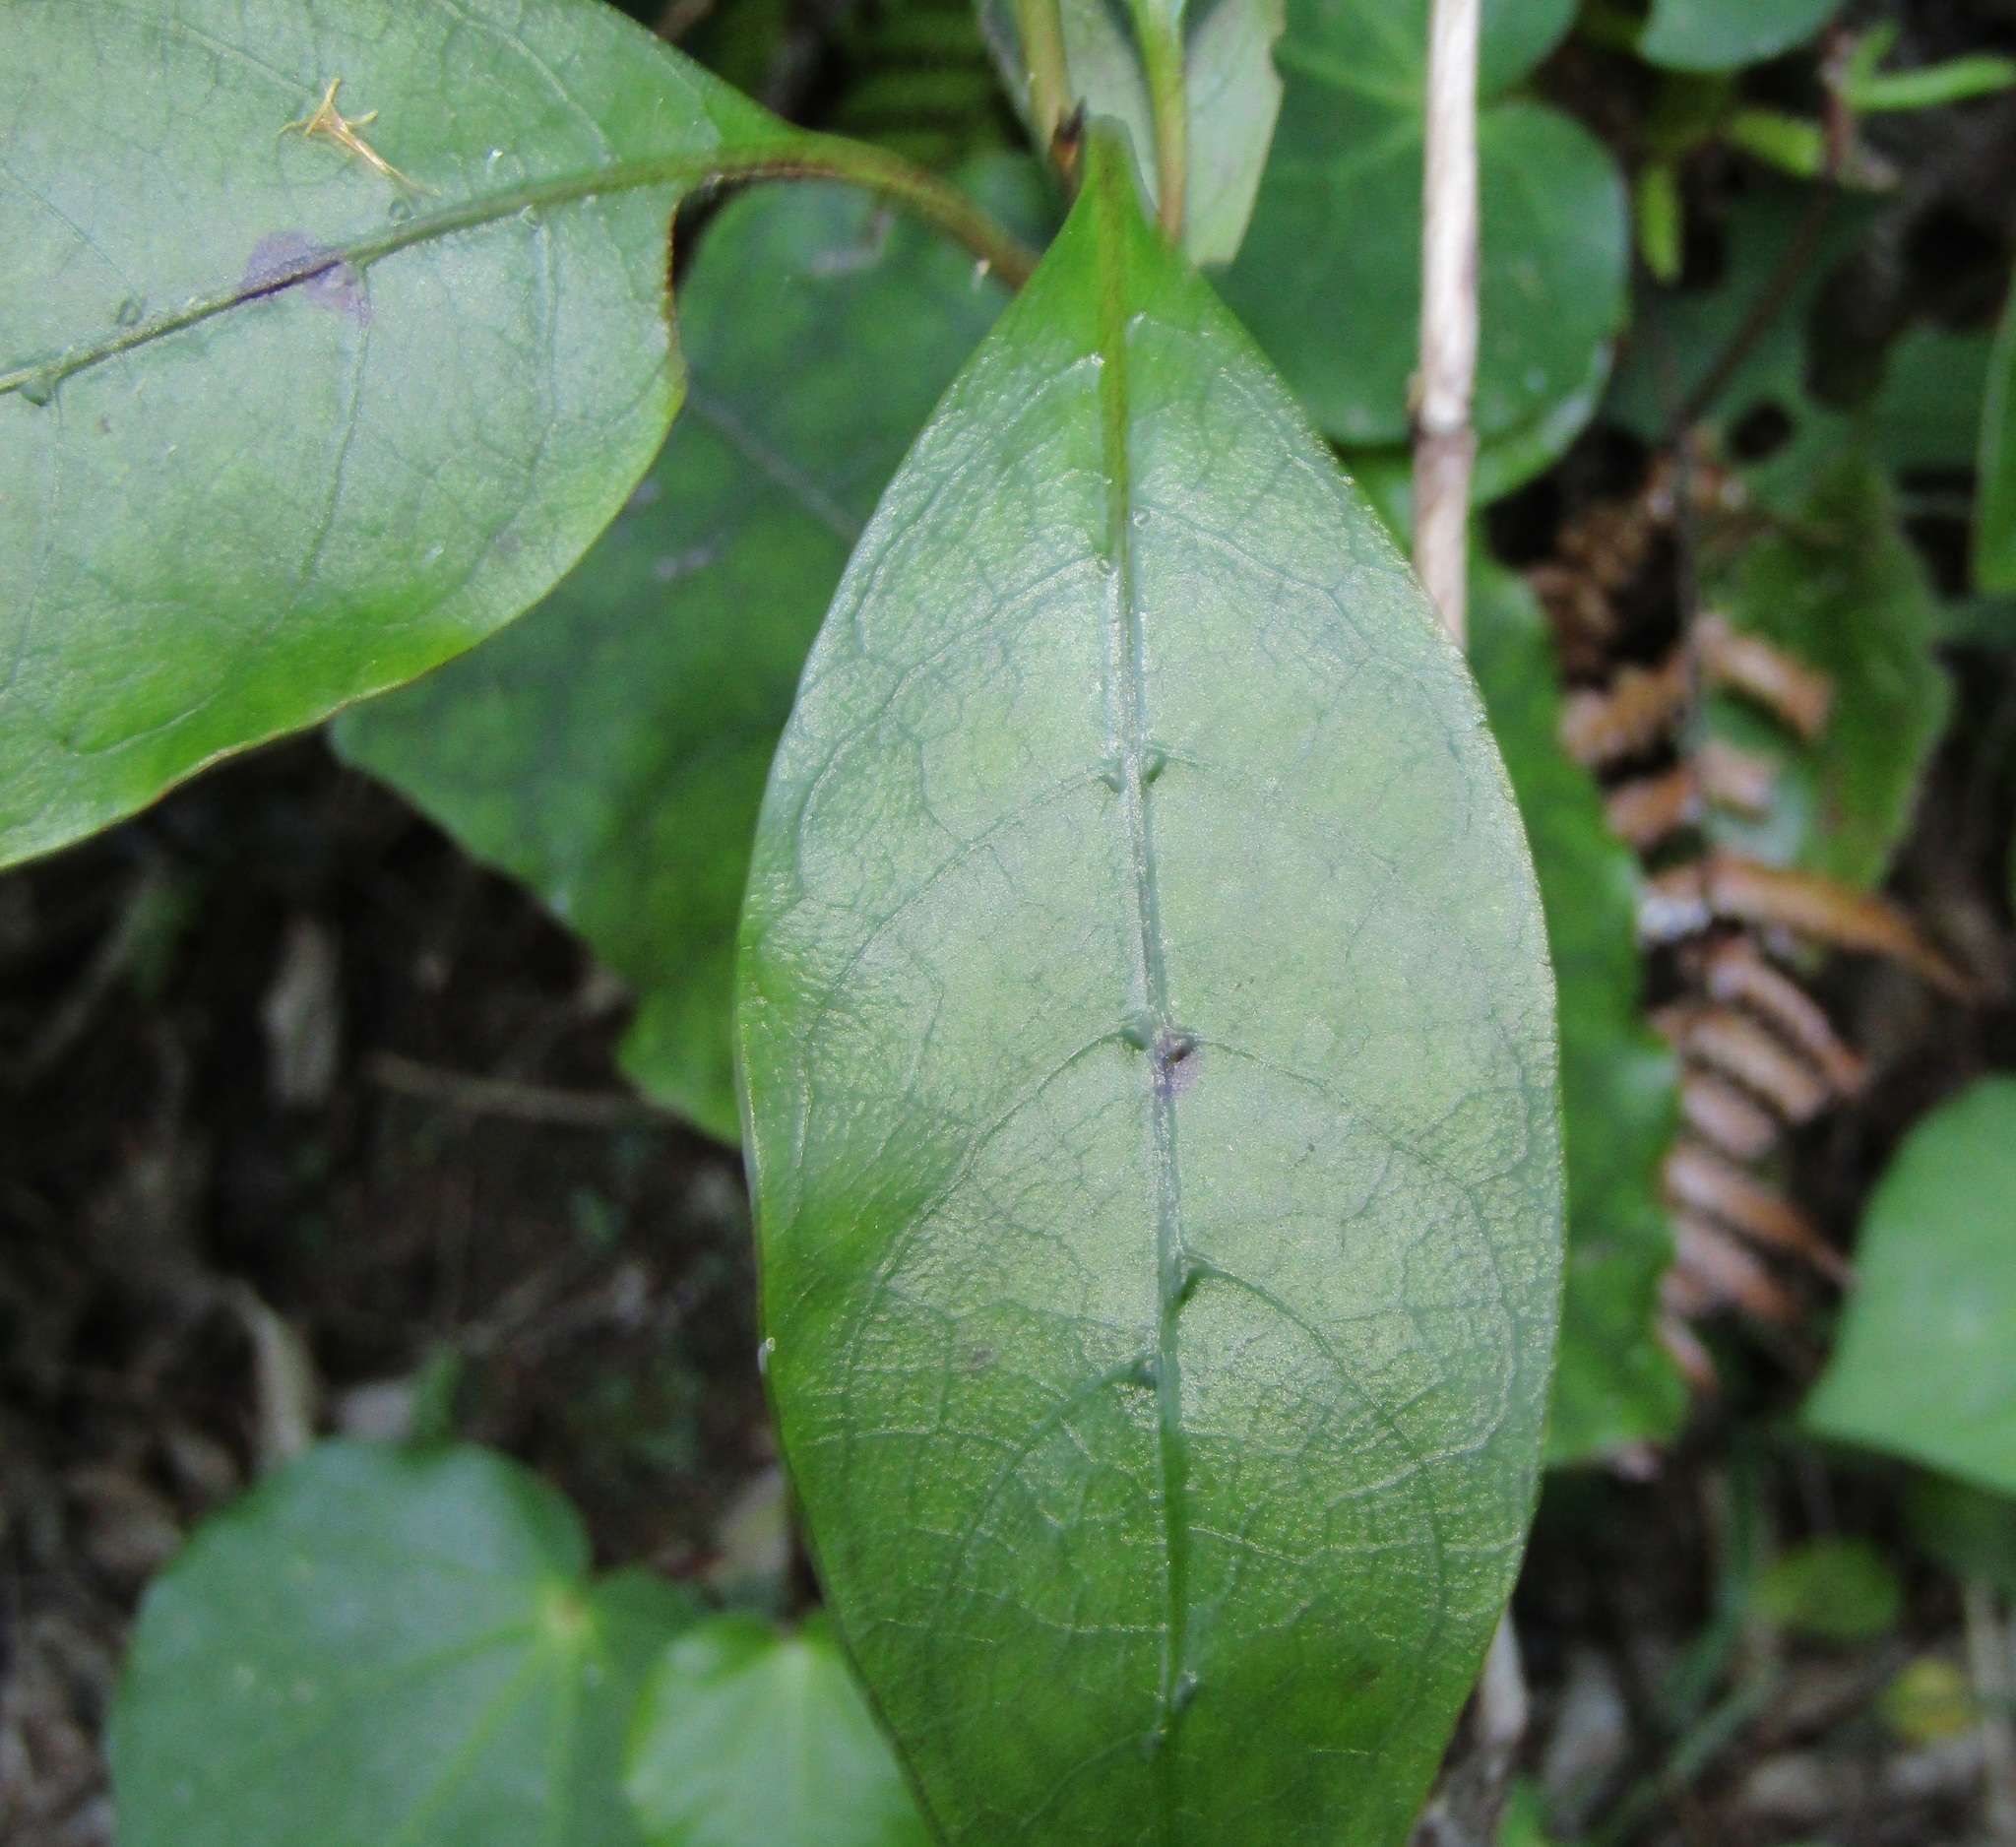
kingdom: Plantae
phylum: Tracheophyta
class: Magnoliopsida
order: Gentianales
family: Rubiaceae
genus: Coprosma
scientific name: Coprosma autumnalis
